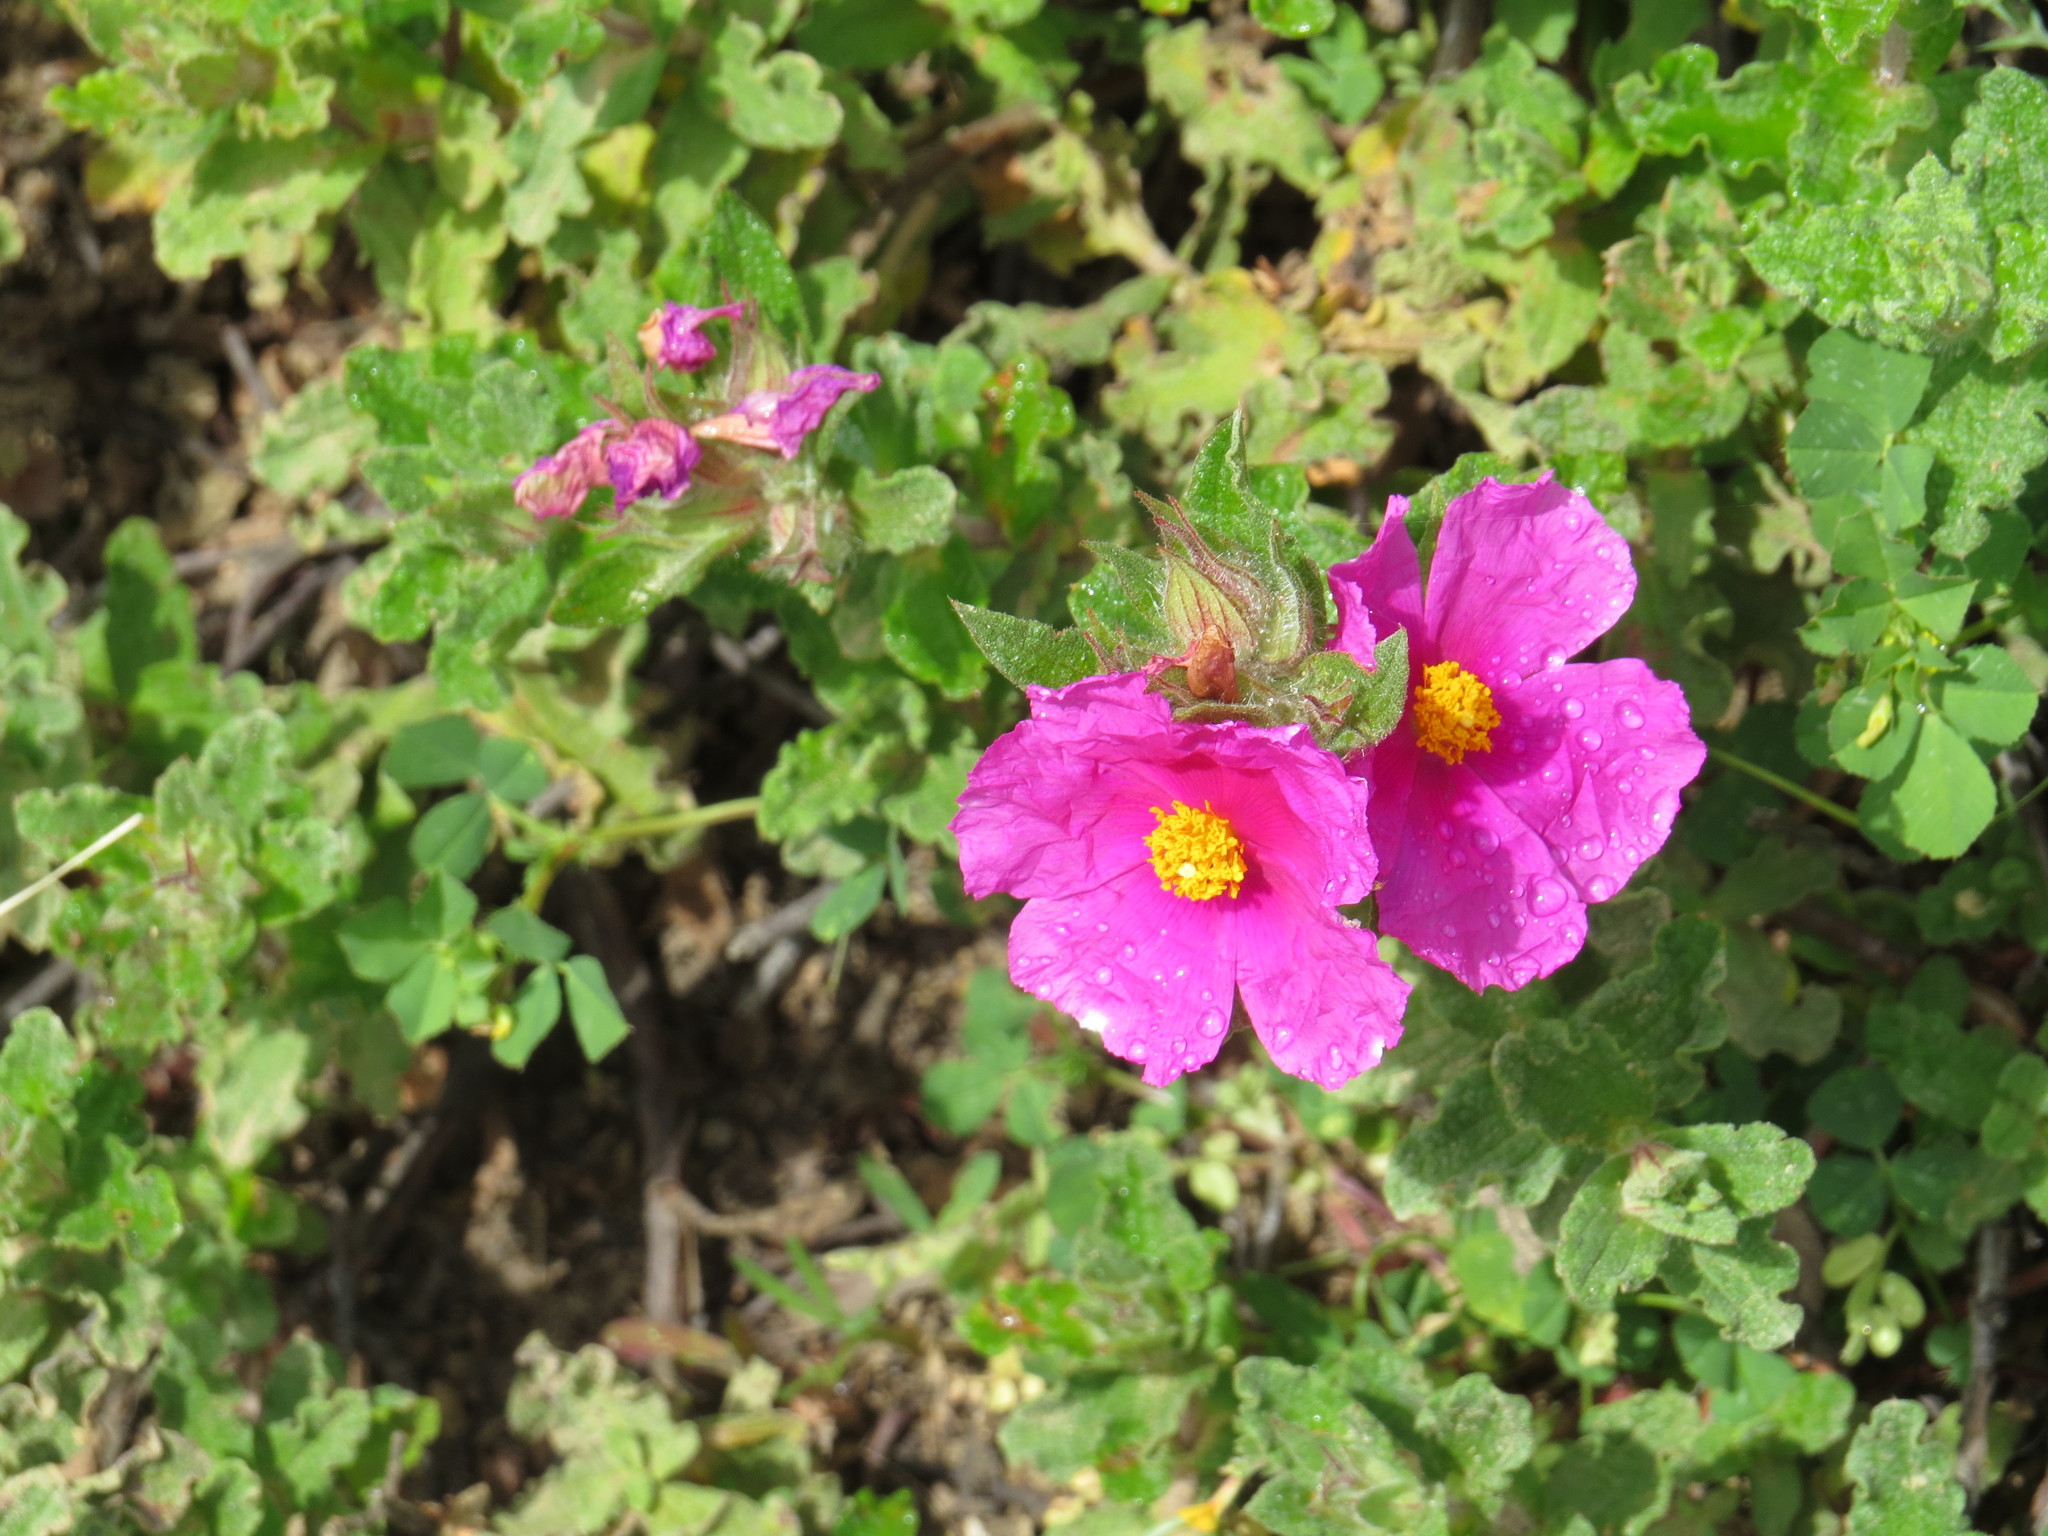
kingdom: Plantae
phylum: Tracheophyta
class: Magnoliopsida
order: Malvales
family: Cistaceae
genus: Cistus
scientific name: Cistus crispus
